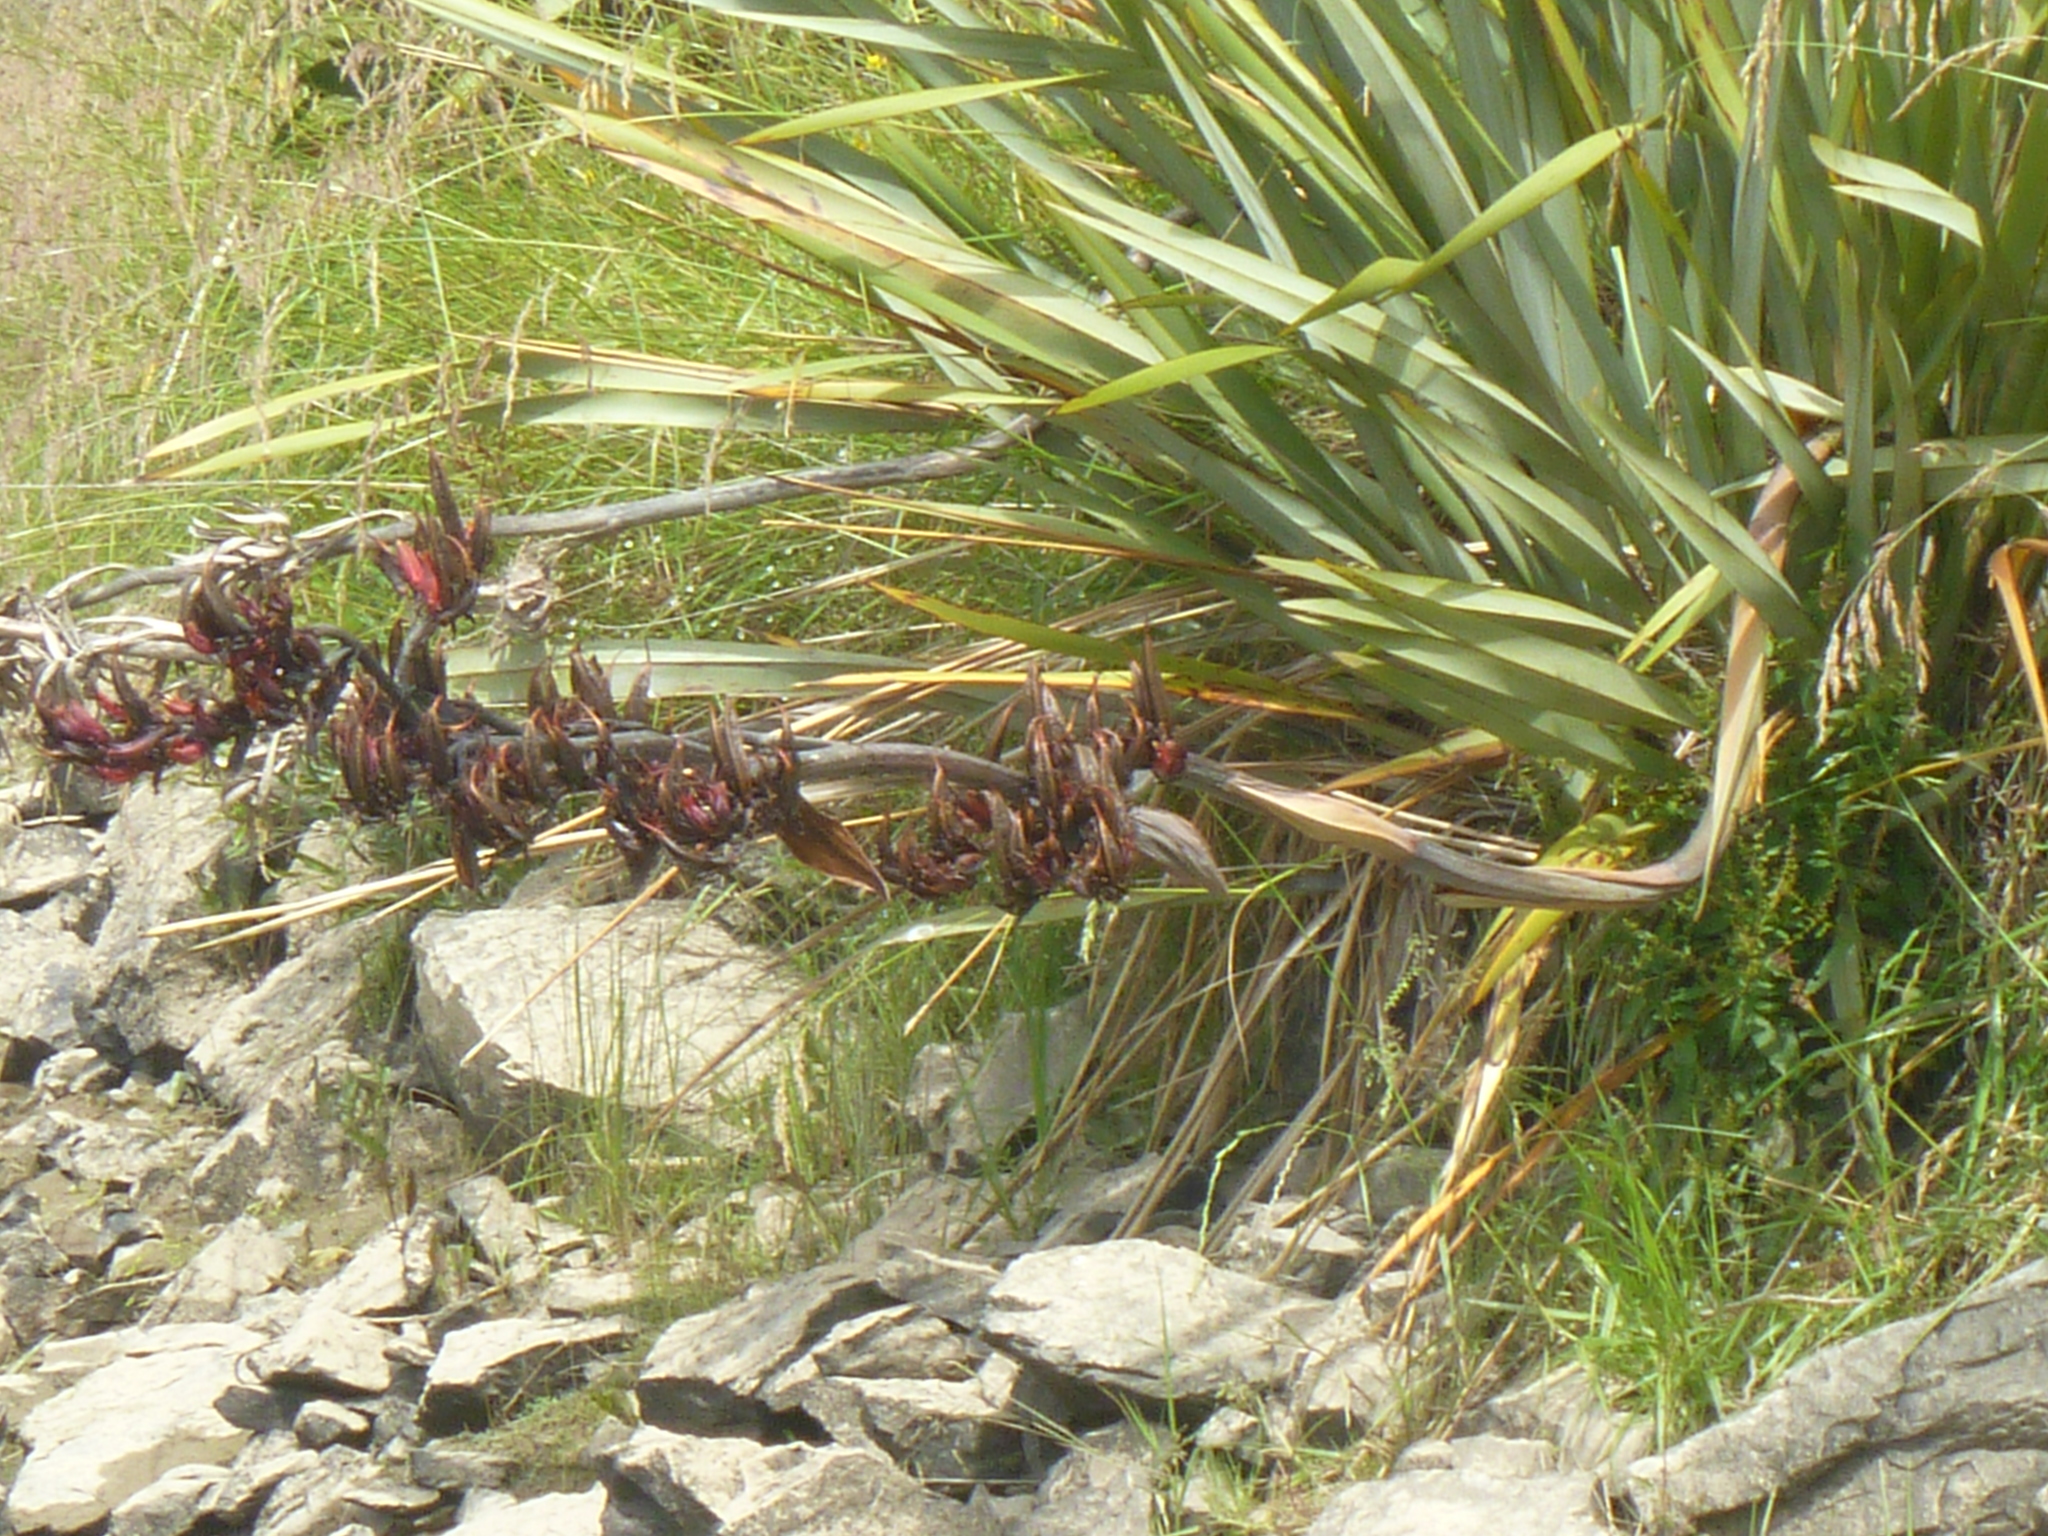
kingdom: Plantae
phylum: Tracheophyta
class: Liliopsida
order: Asparagales
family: Asphodelaceae
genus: Phormium
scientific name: Phormium tenax
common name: New zealand flax
